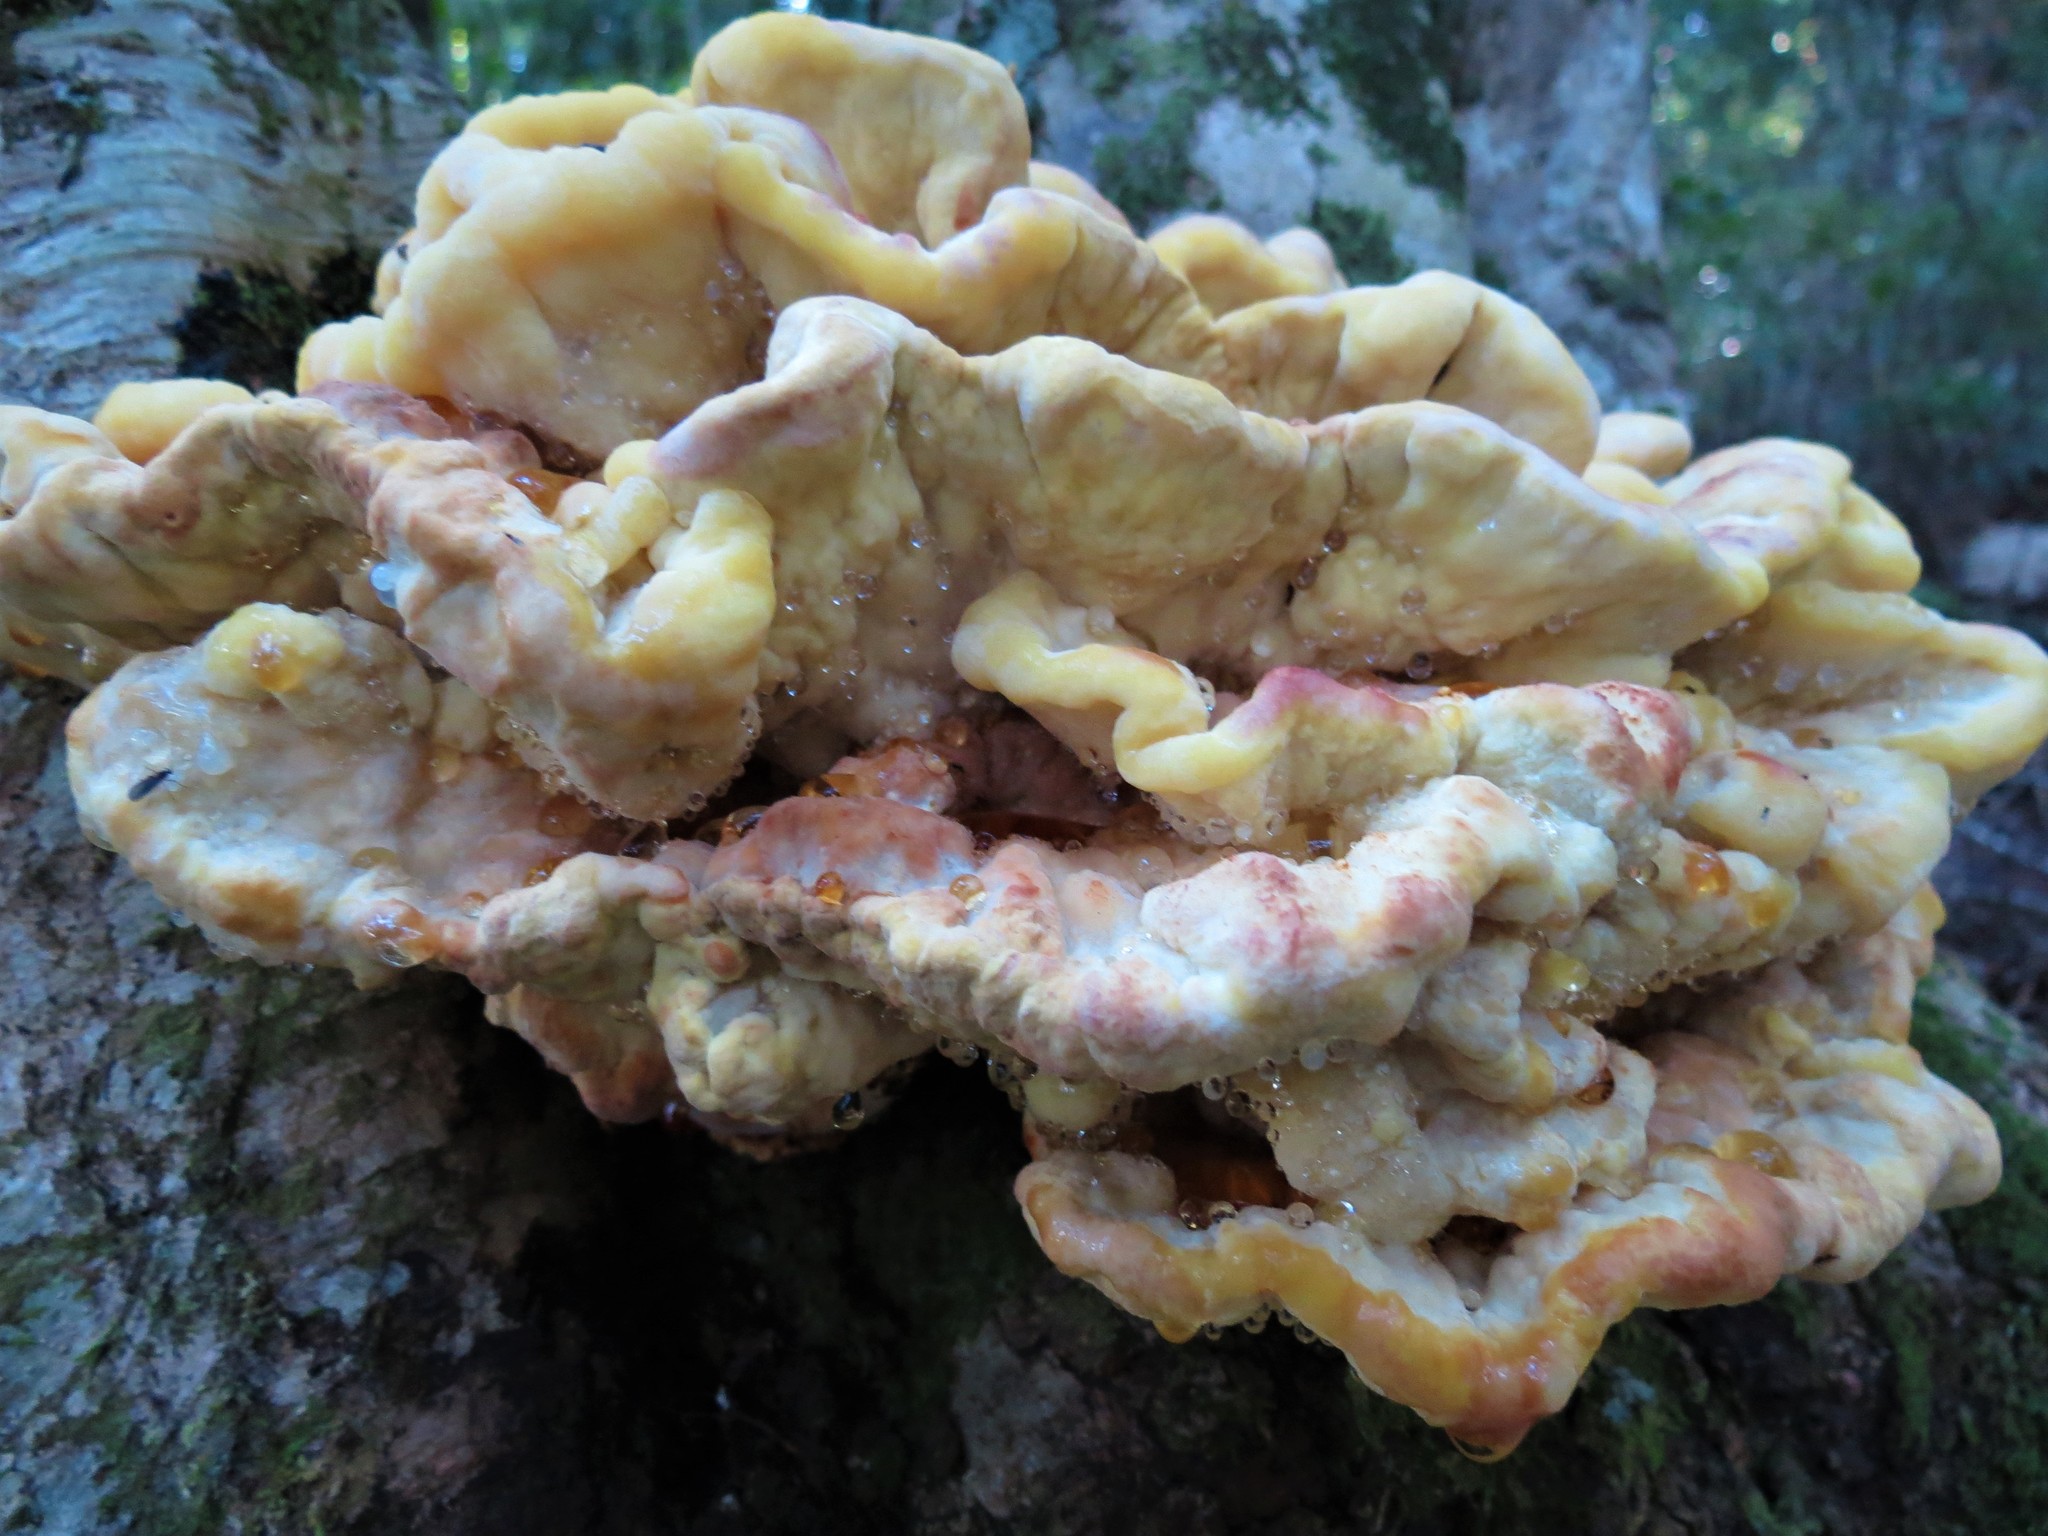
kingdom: Fungi
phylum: Basidiomycota
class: Agaricomycetes
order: Polyporales
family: Laetiporaceae
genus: Laetiporus
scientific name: Laetiporus sulphureus
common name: Chicken of the woods
